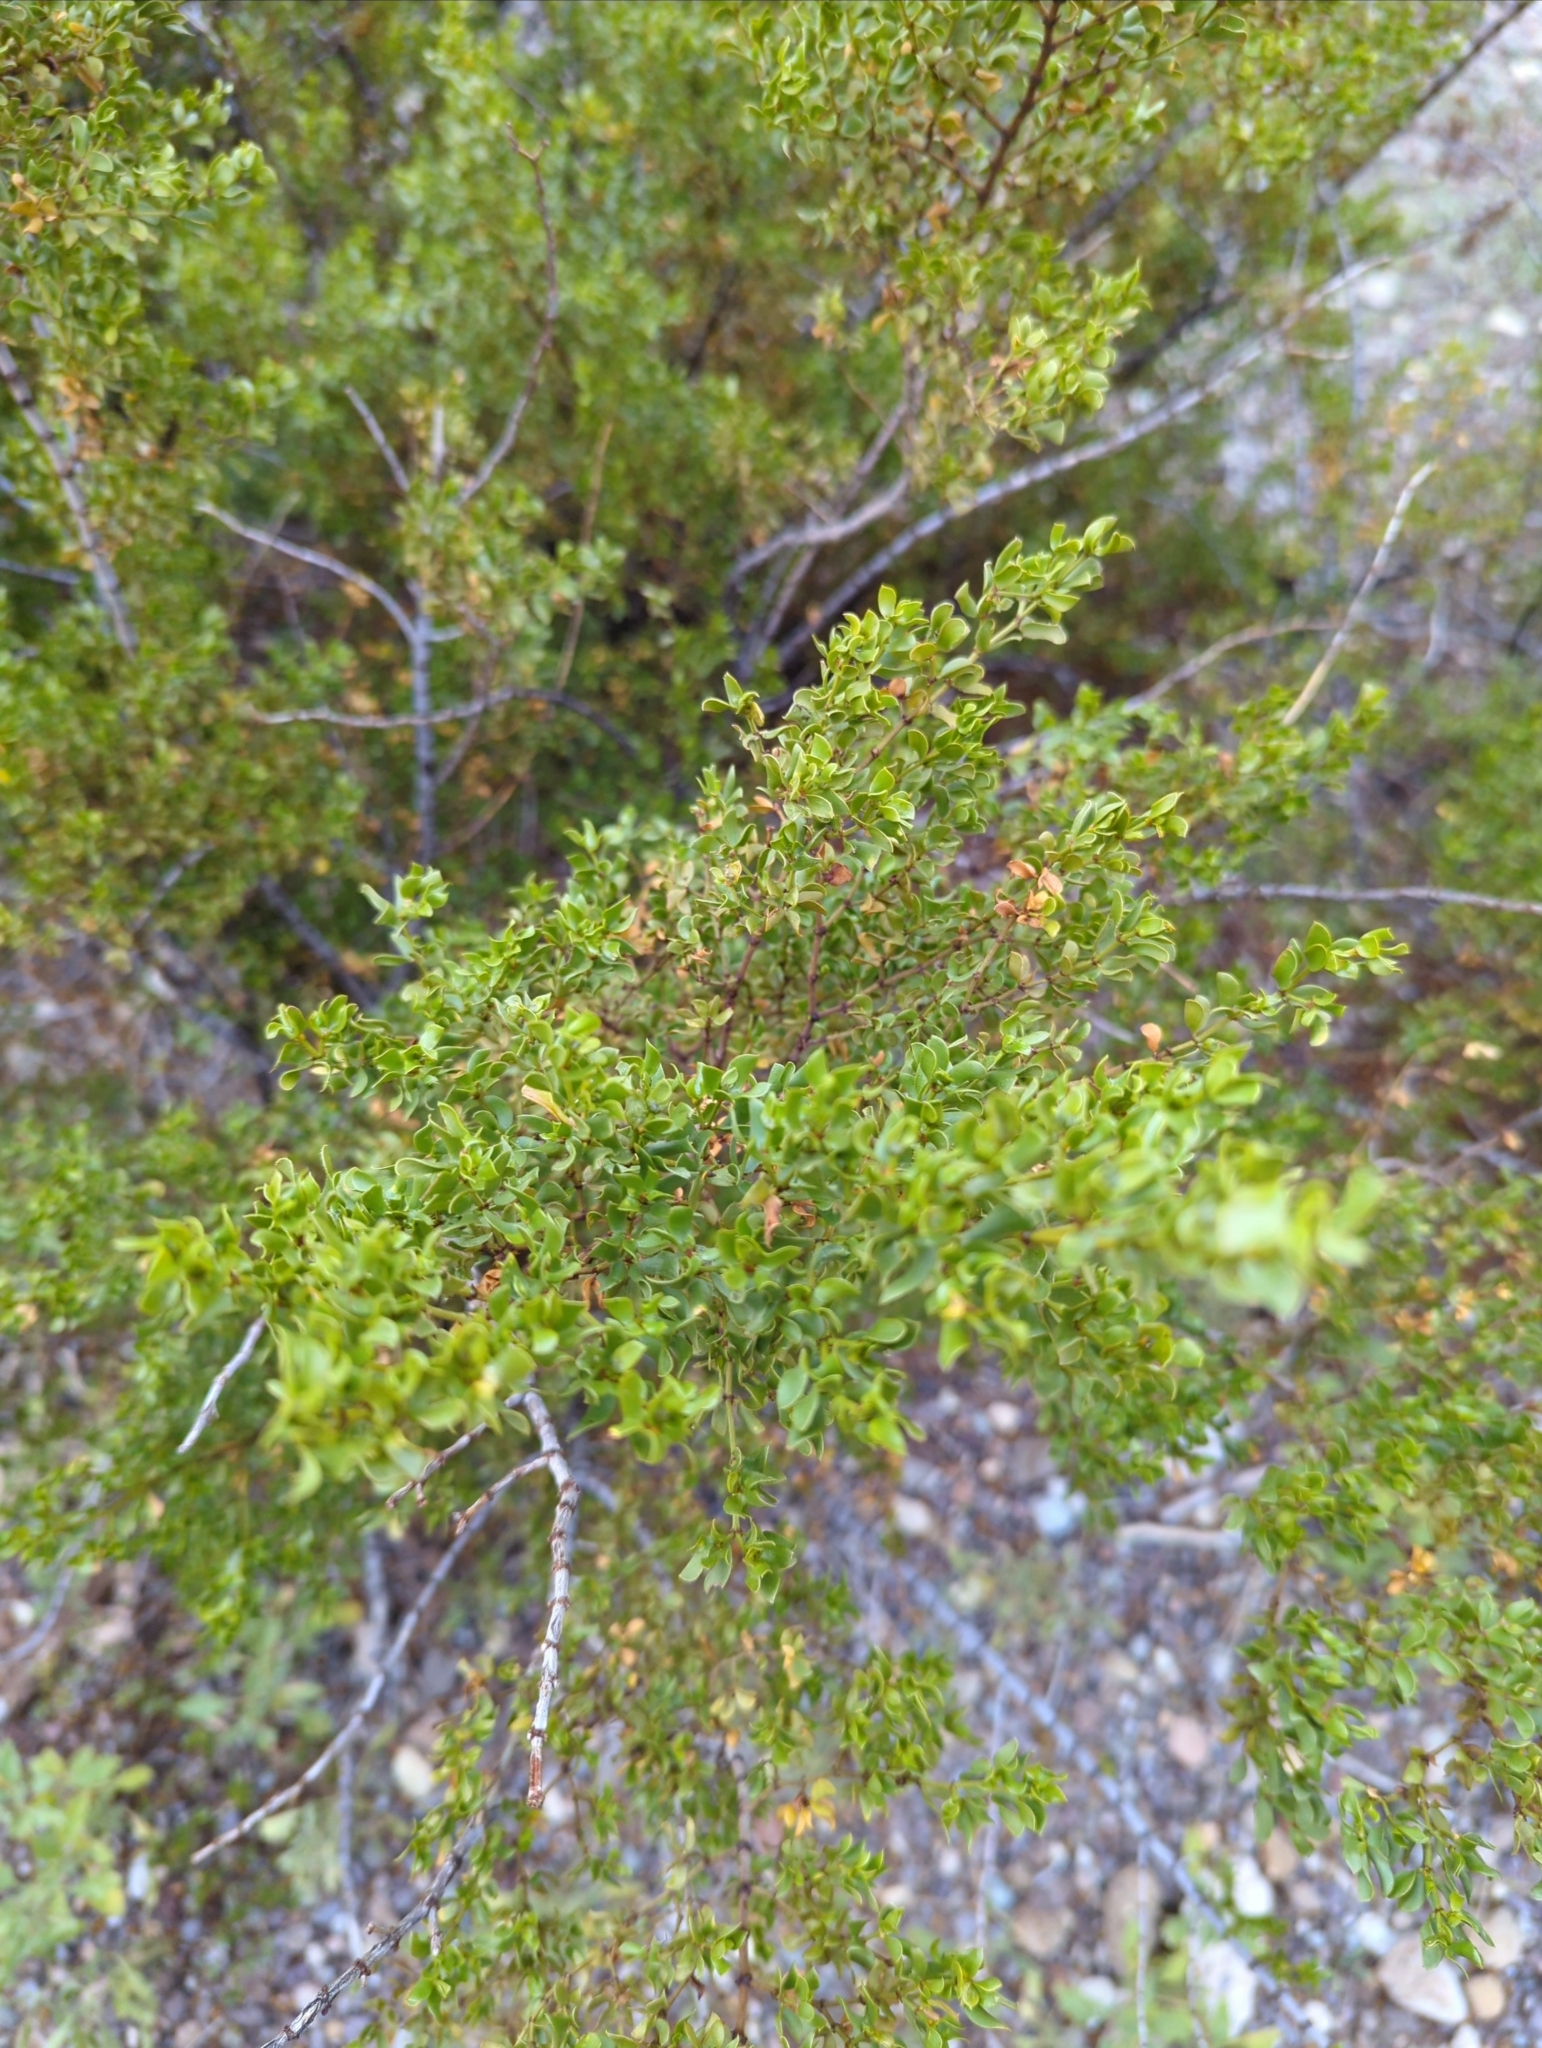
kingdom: Plantae
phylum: Tracheophyta
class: Magnoliopsida
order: Zygophyllales
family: Zygophyllaceae
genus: Larrea
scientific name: Larrea tridentata
